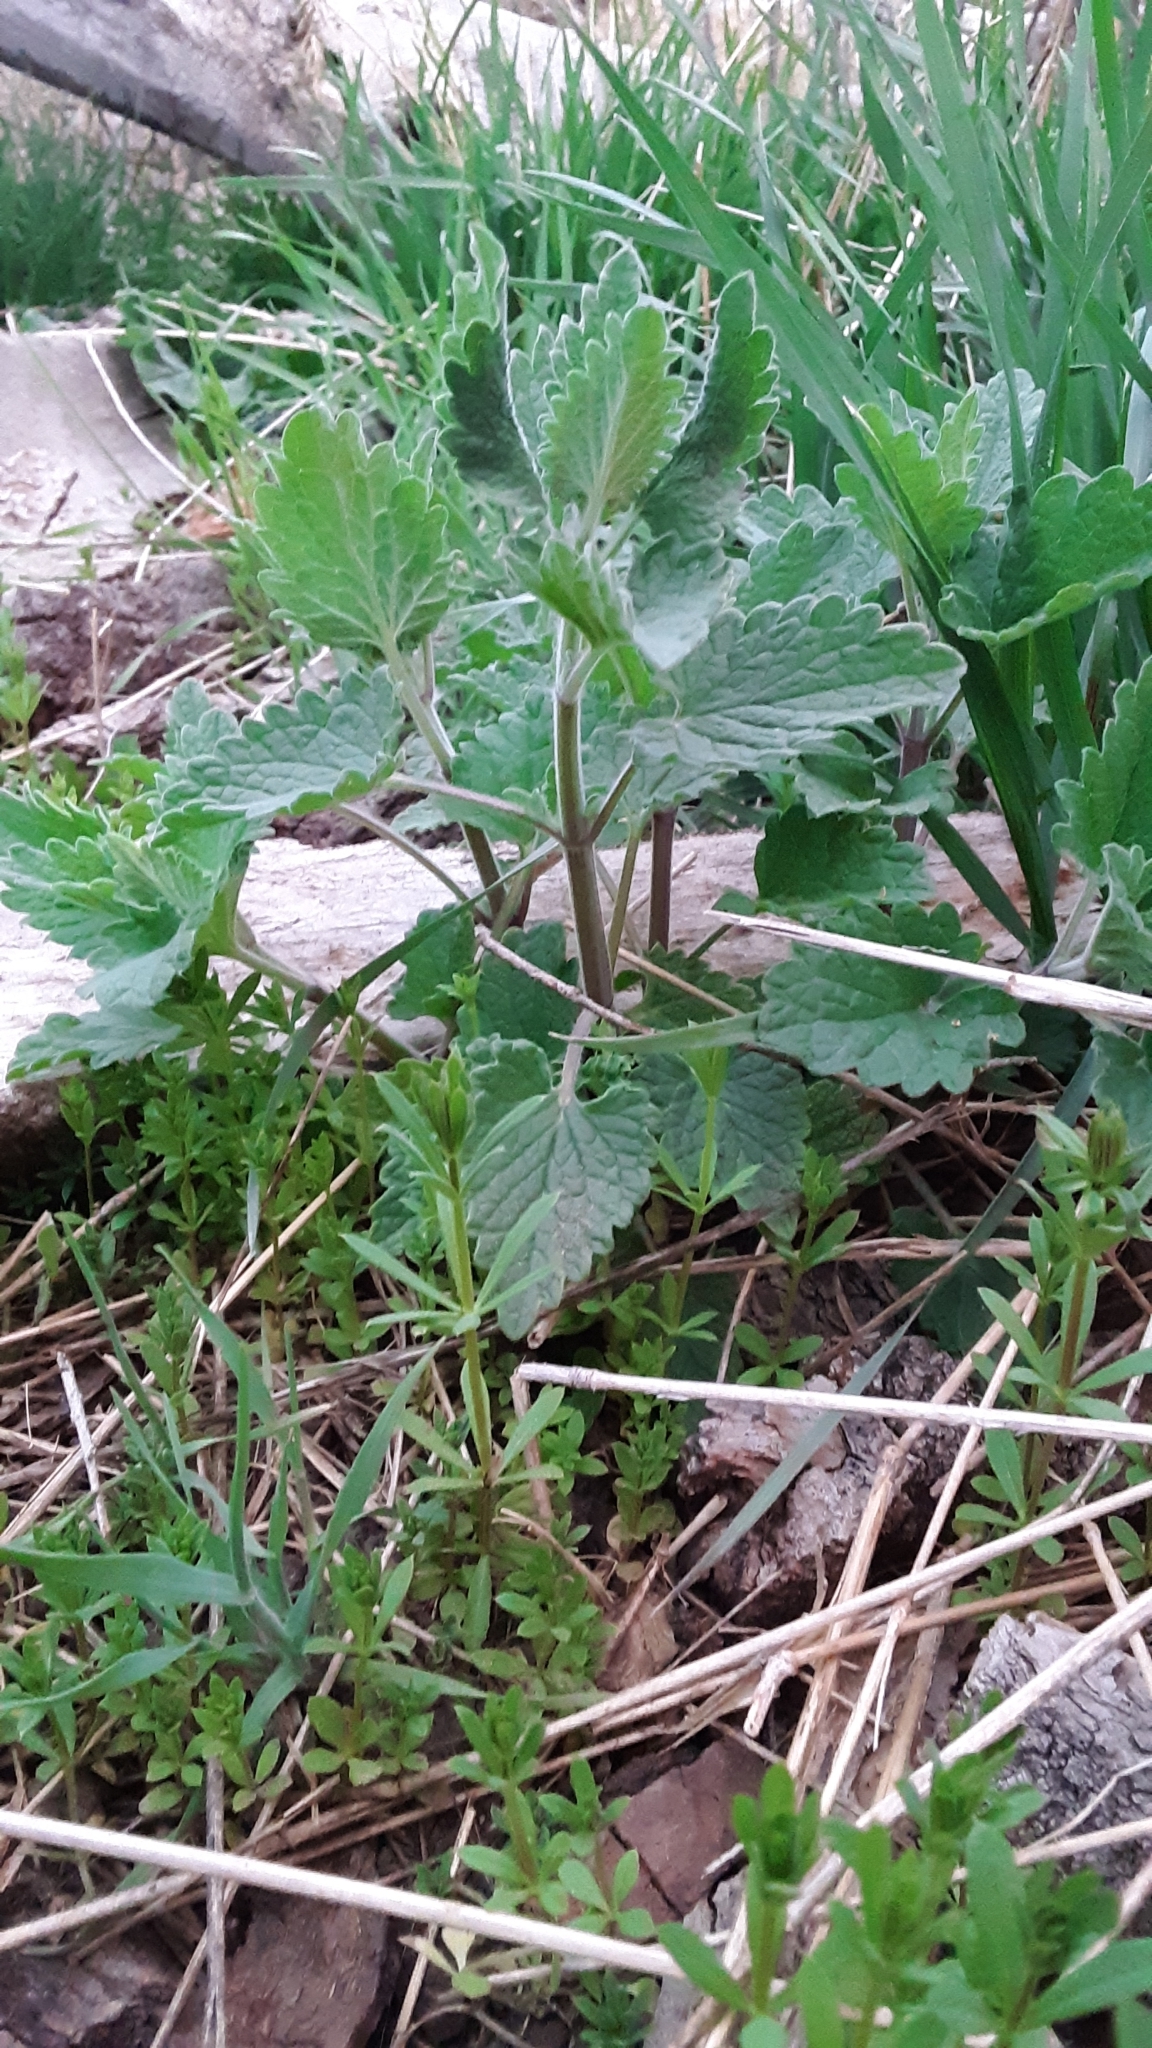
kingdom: Plantae
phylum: Tracheophyta
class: Magnoliopsida
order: Lamiales
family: Lamiaceae
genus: Nepeta
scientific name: Nepeta cataria
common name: Catnip
